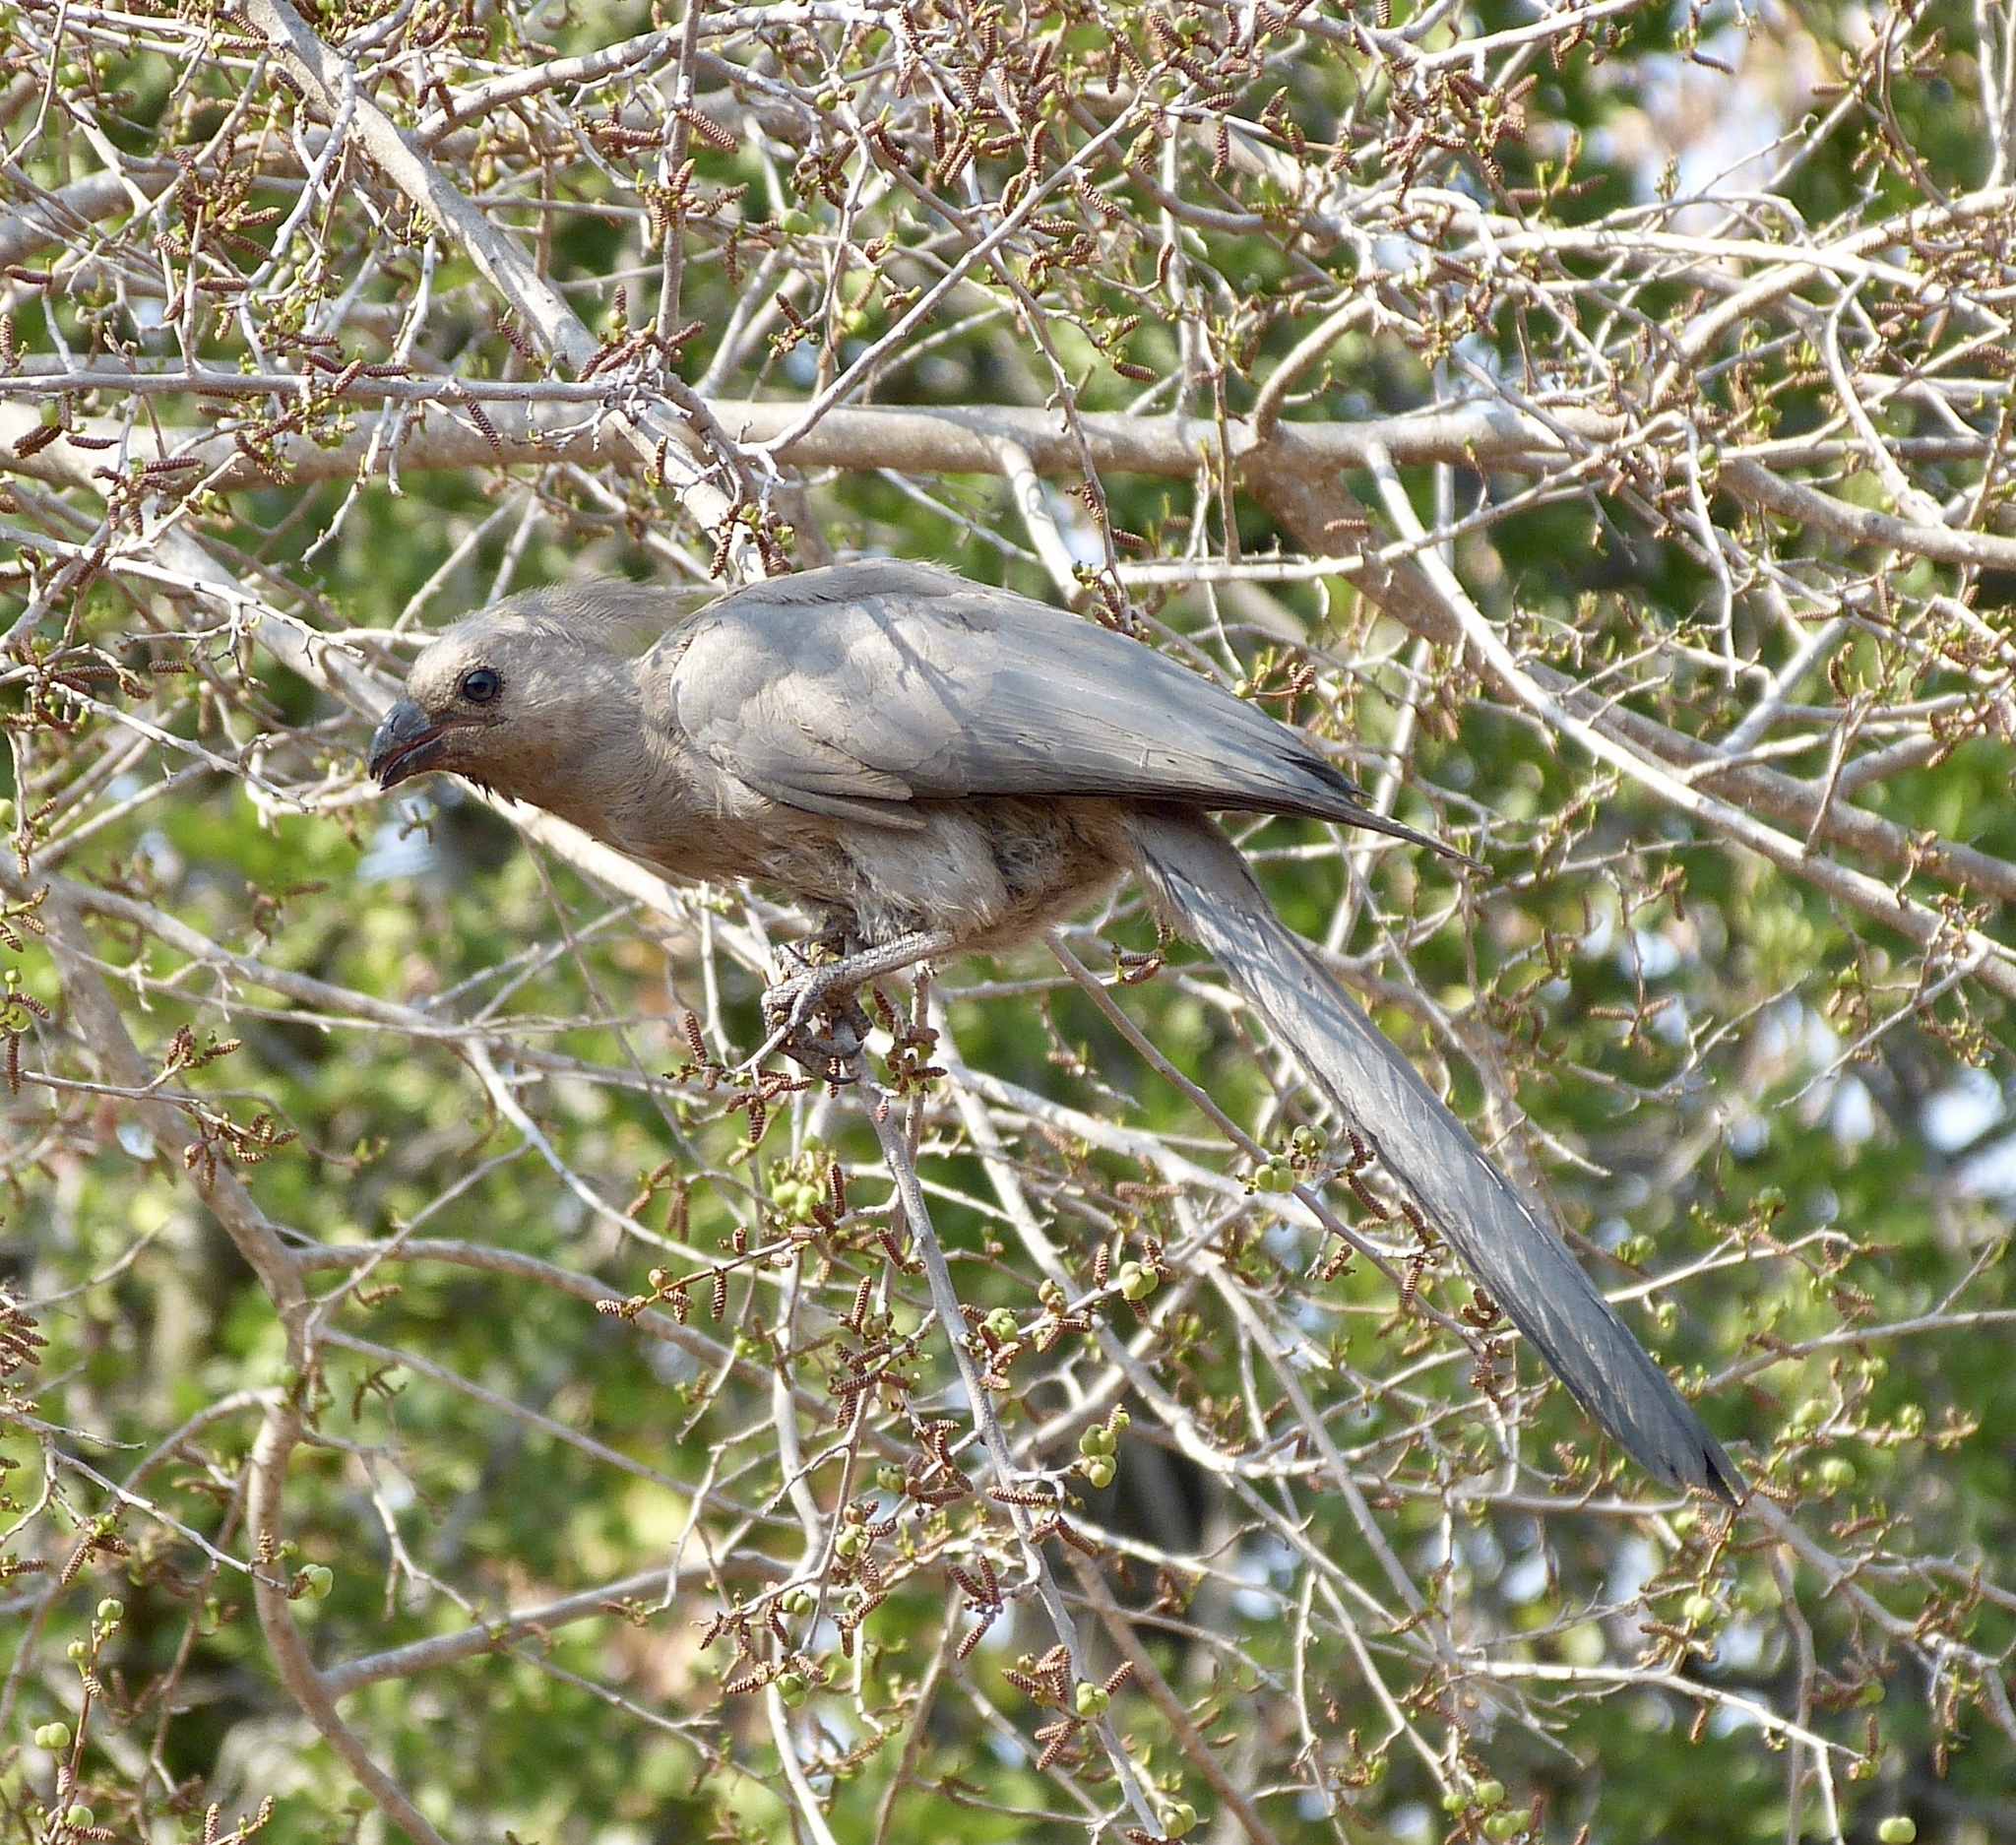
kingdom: Animalia
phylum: Chordata
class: Aves
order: Musophagiformes
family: Musophagidae
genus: Corythaixoides
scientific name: Corythaixoides concolor
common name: Grey go-away-bird
